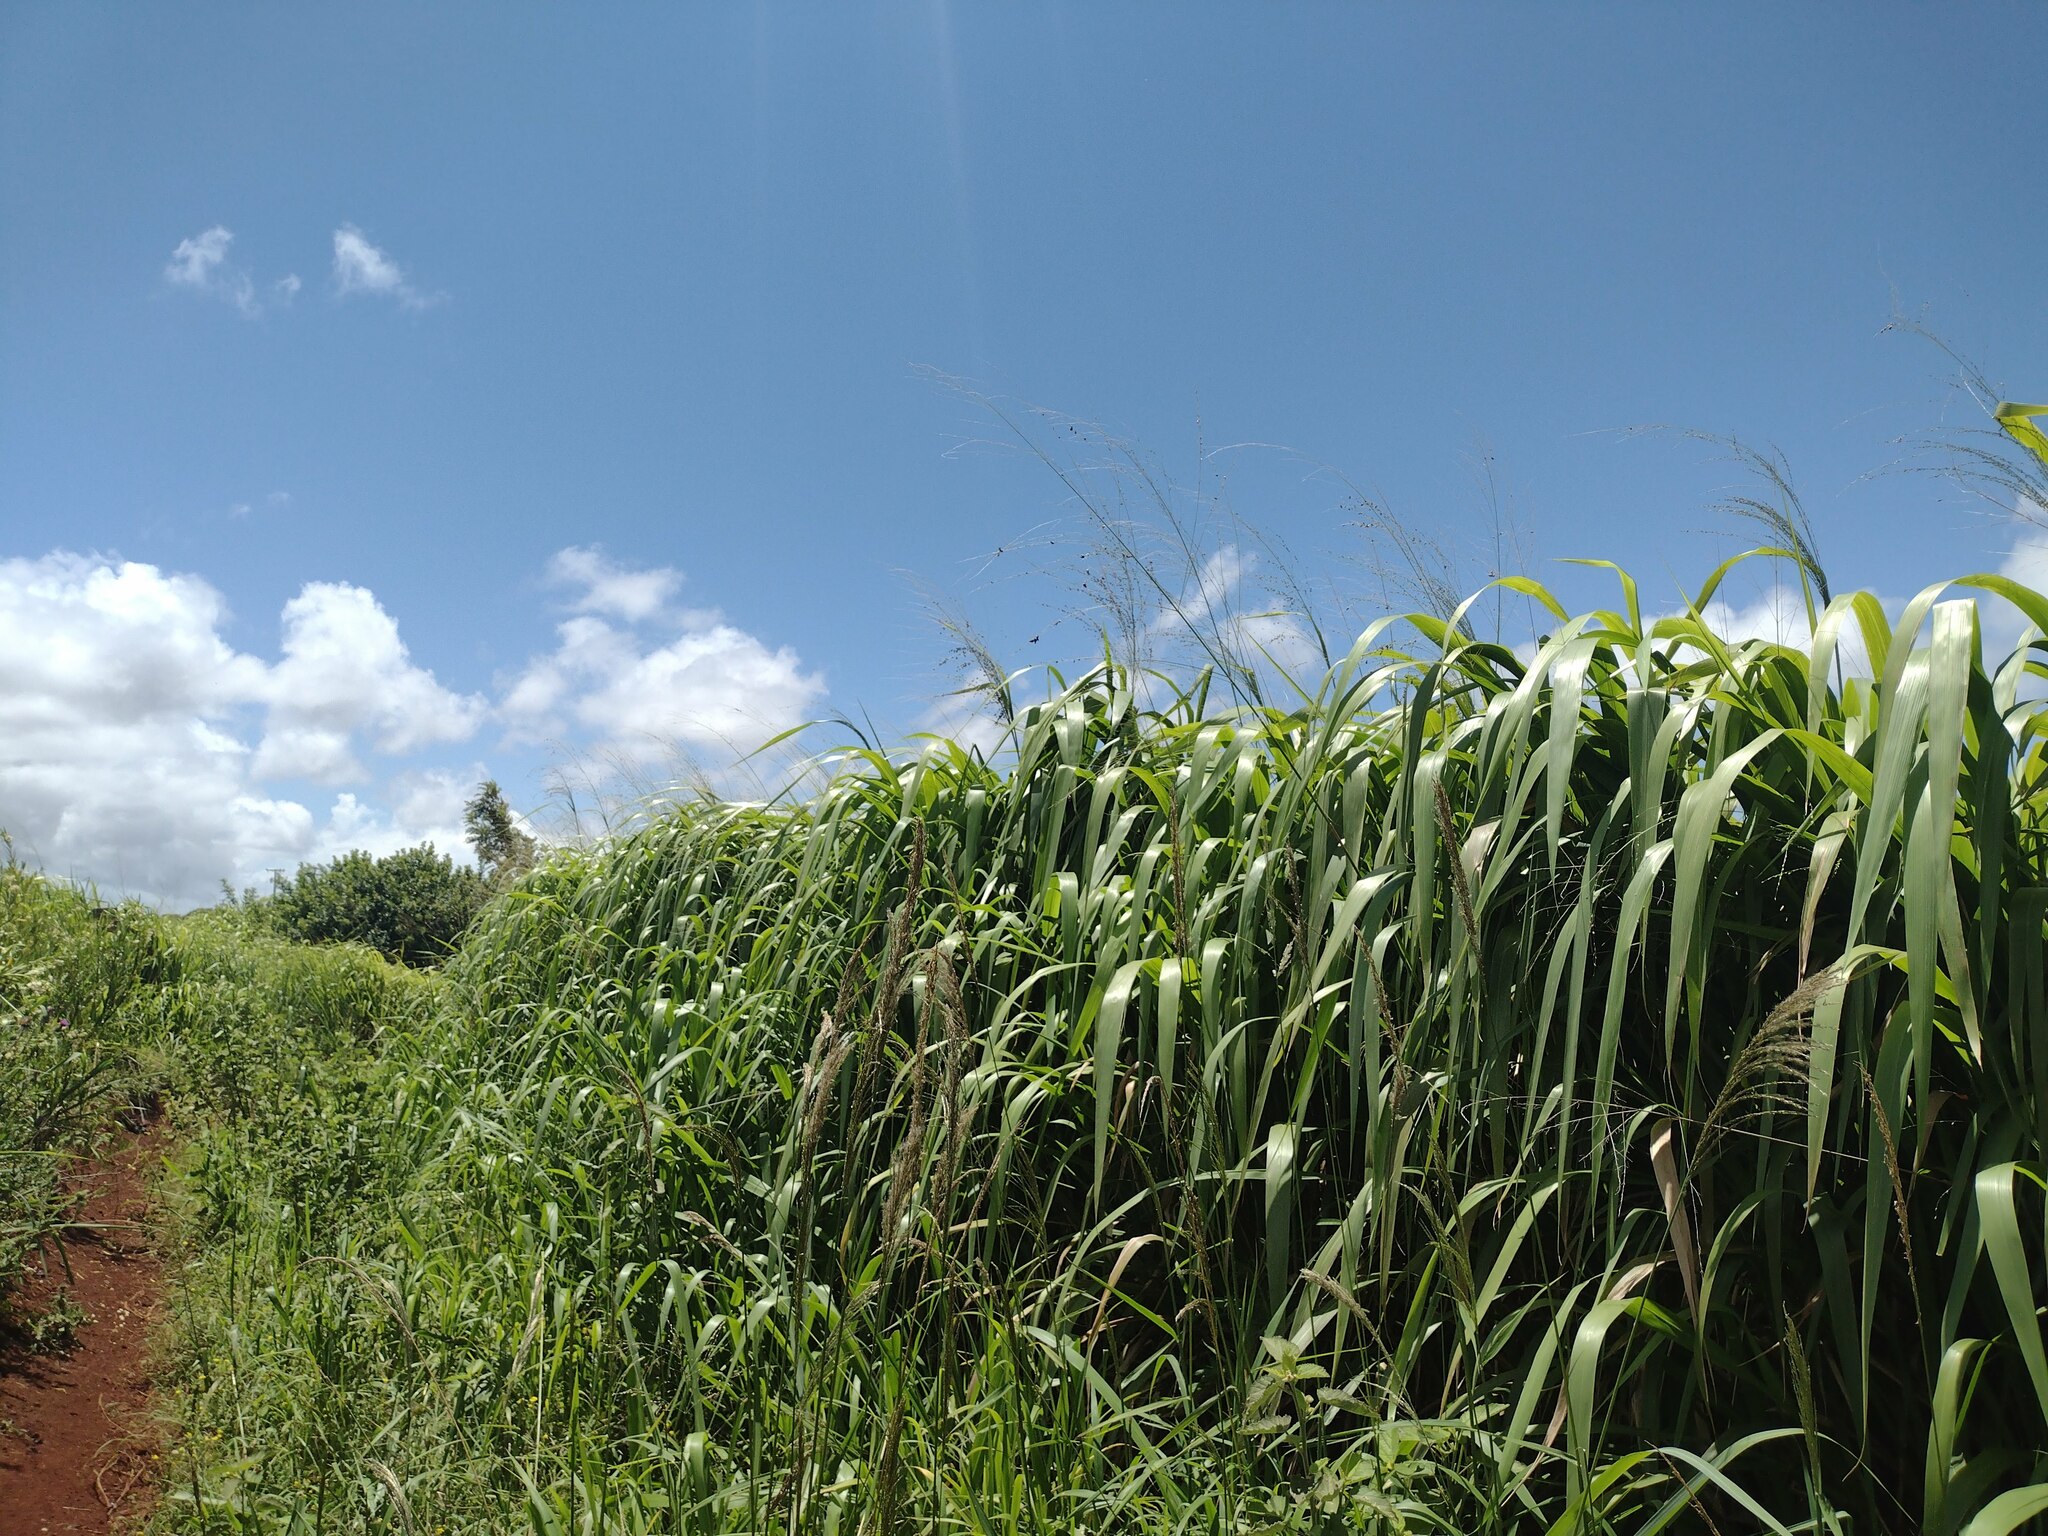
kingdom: Plantae
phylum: Tracheophyta
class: Liliopsida
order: Poales
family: Poaceae
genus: Megathyrsus
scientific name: Megathyrsus maximus
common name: Guineagrass
